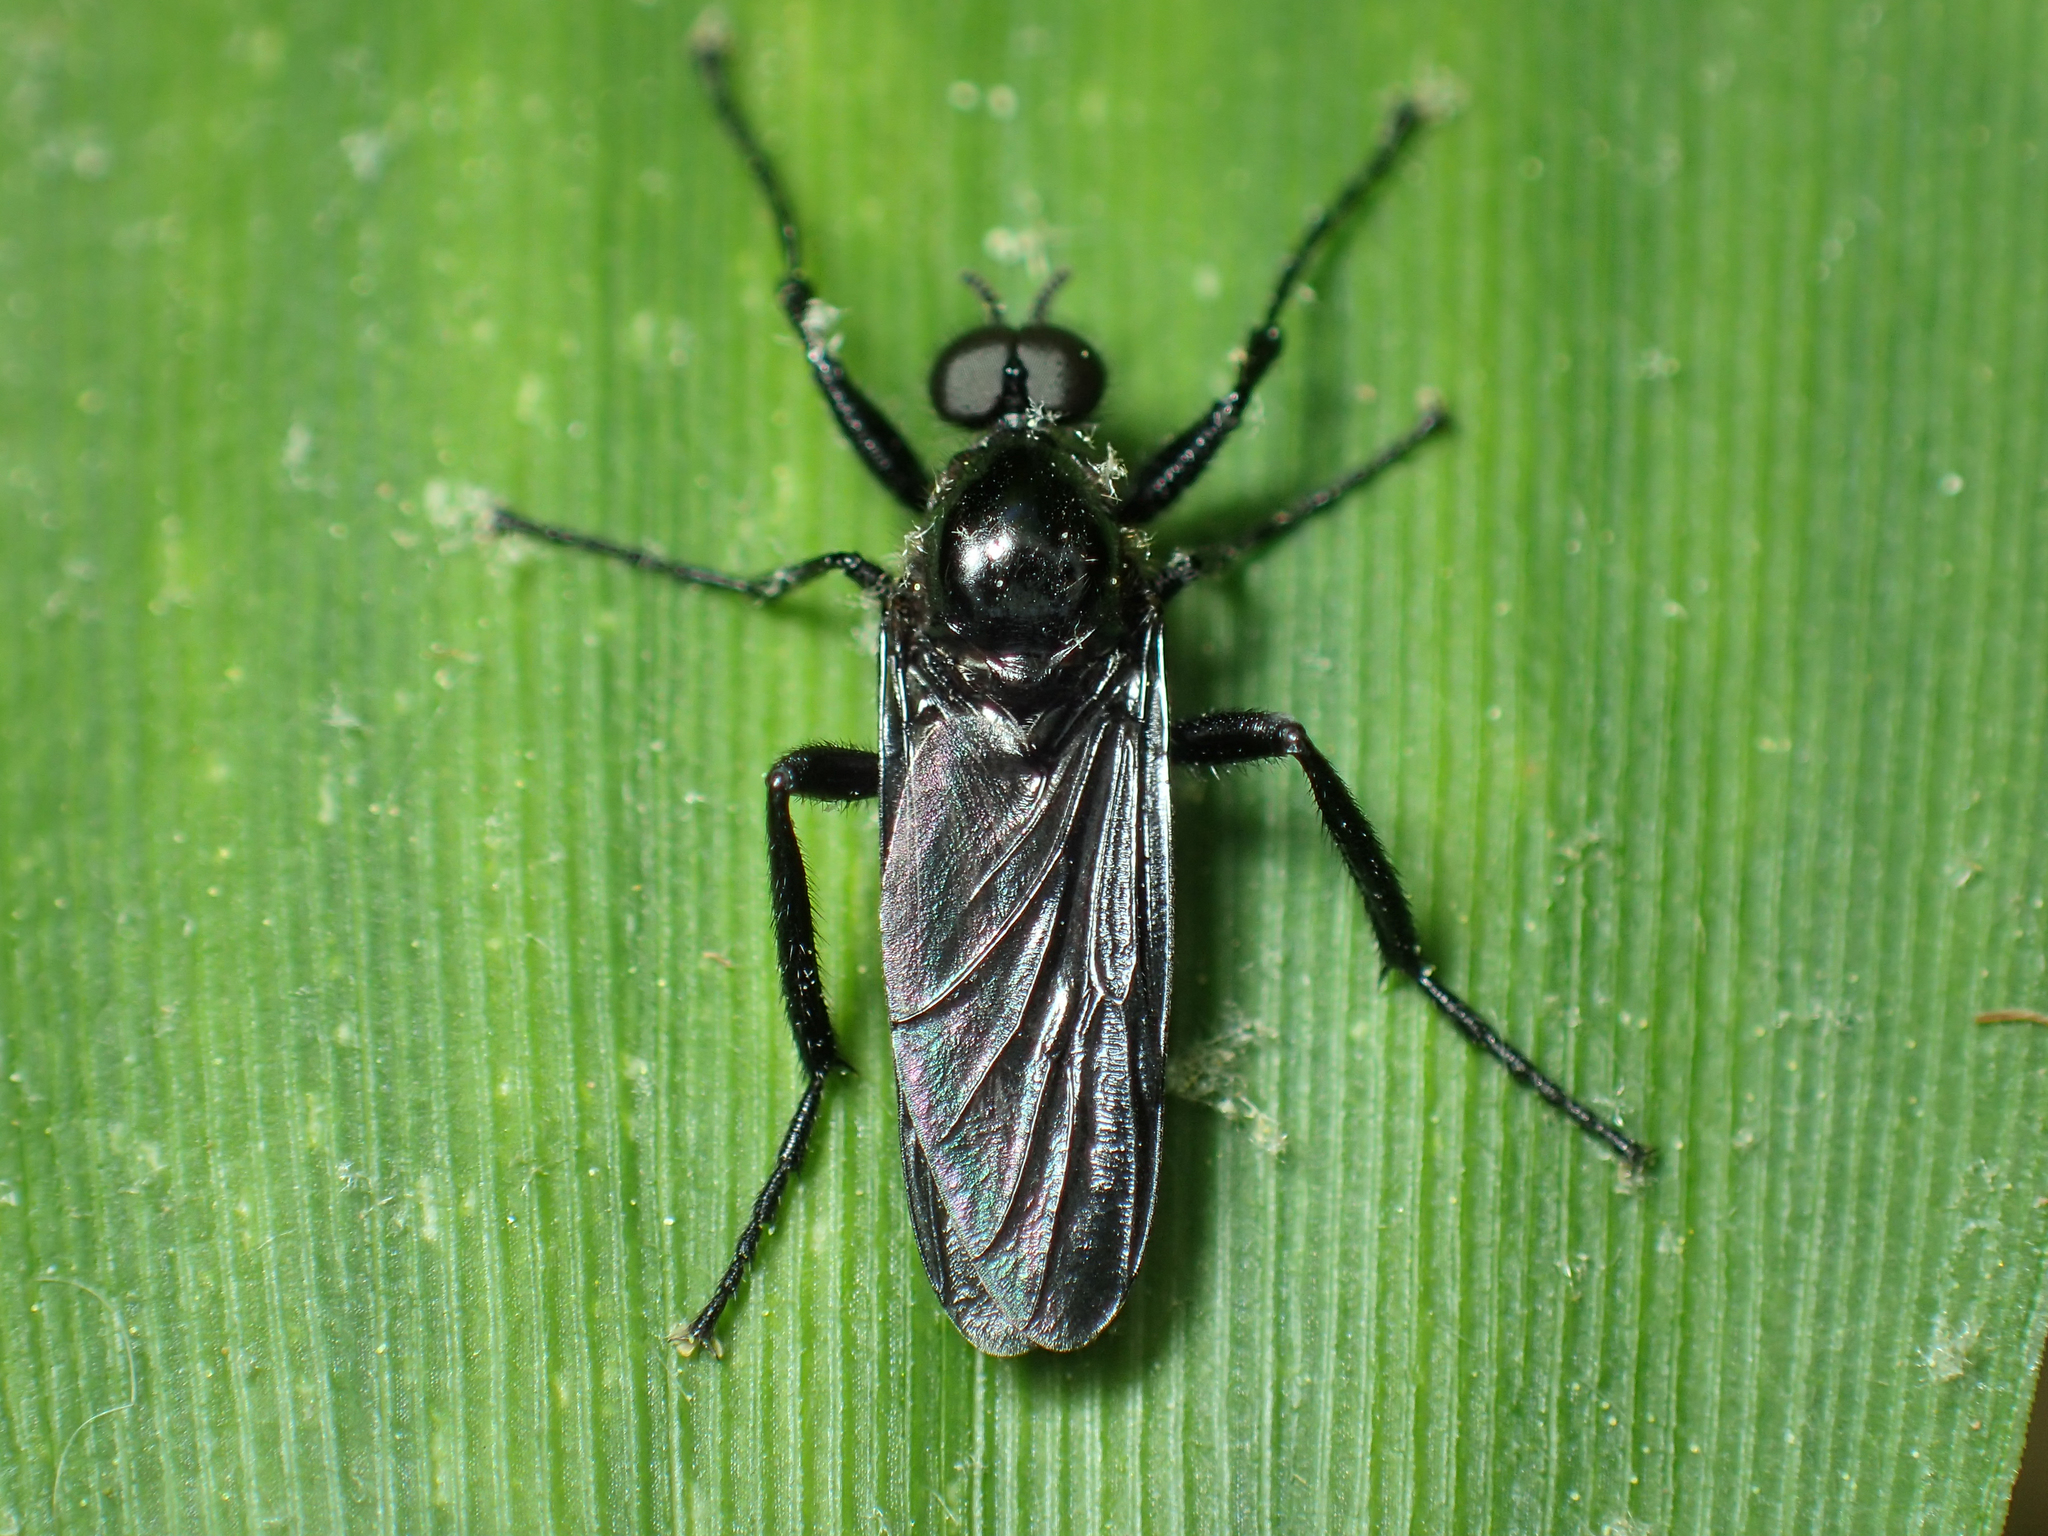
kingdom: Animalia
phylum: Arthropoda
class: Insecta
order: Diptera
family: Bibionidae
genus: Bibio
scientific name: Bibio superfluus
